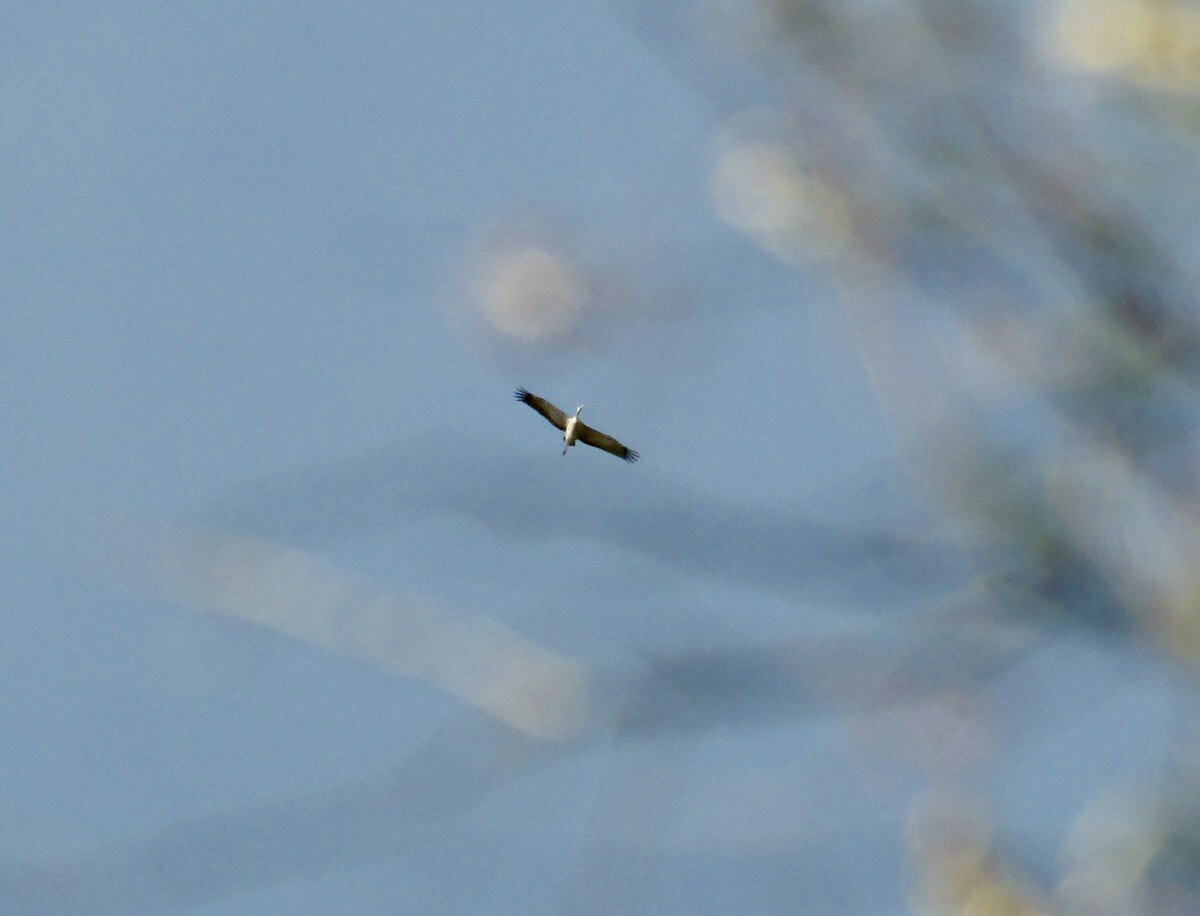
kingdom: Animalia
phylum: Chordata
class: Aves
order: Gruiformes
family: Gruidae
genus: Grus
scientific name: Grus grus
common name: Common crane
